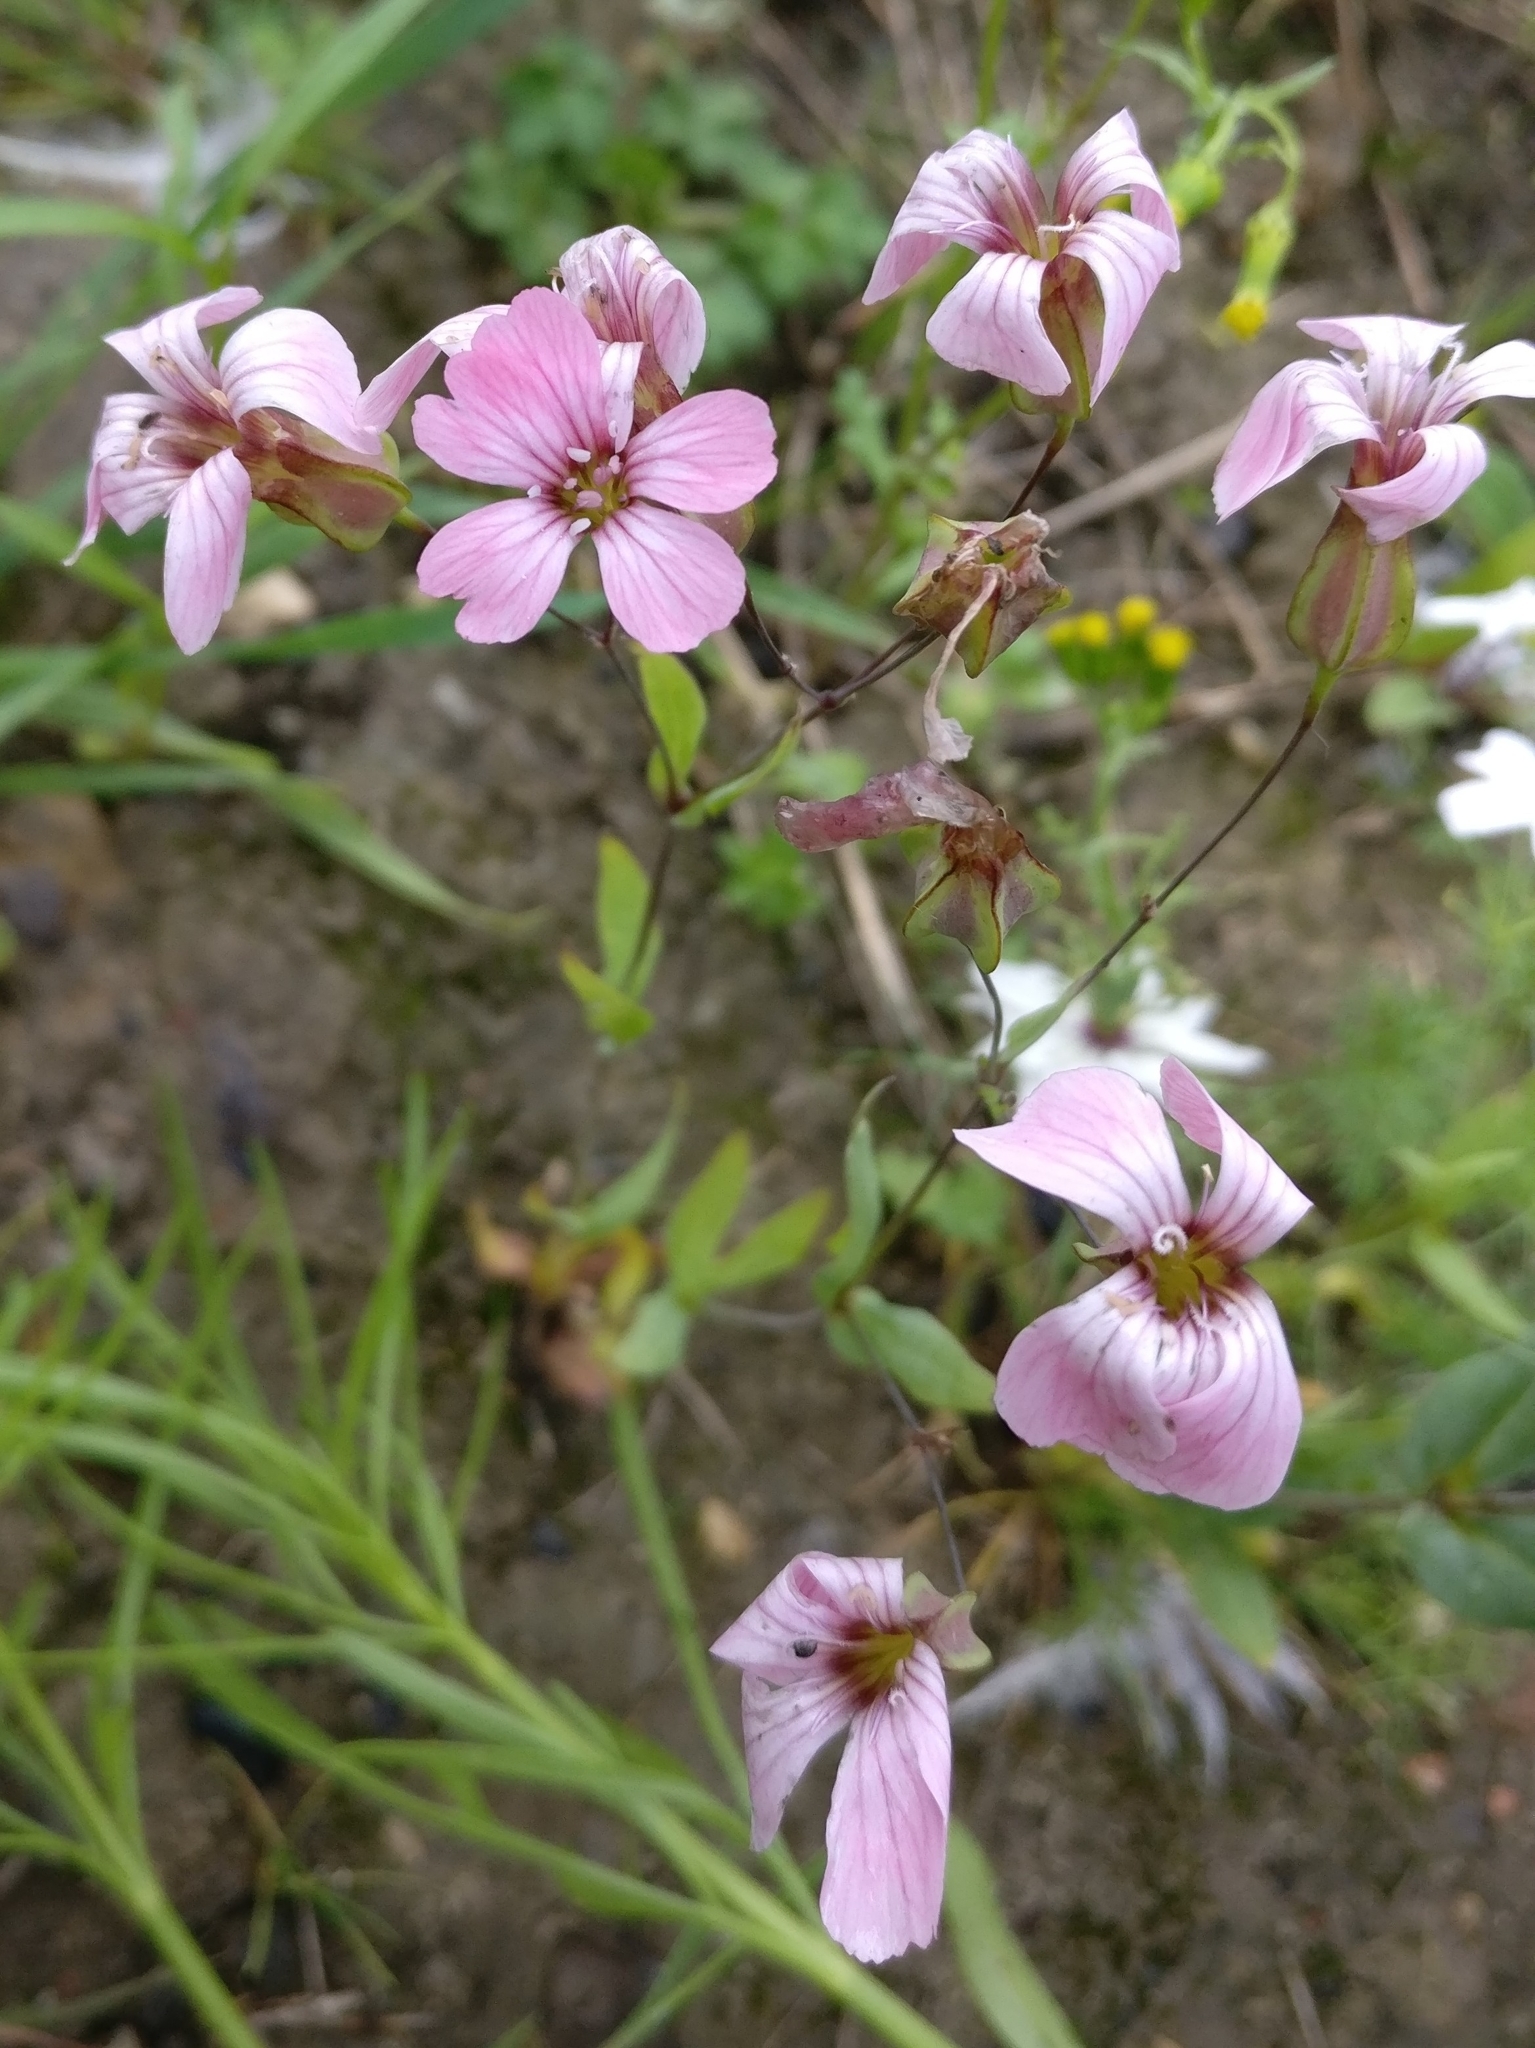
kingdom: Plantae
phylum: Tracheophyta
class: Magnoliopsida
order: Caryophyllales
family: Caryophyllaceae
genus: Gypsophila
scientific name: Gypsophila vaccaria
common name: Cow soapwort
